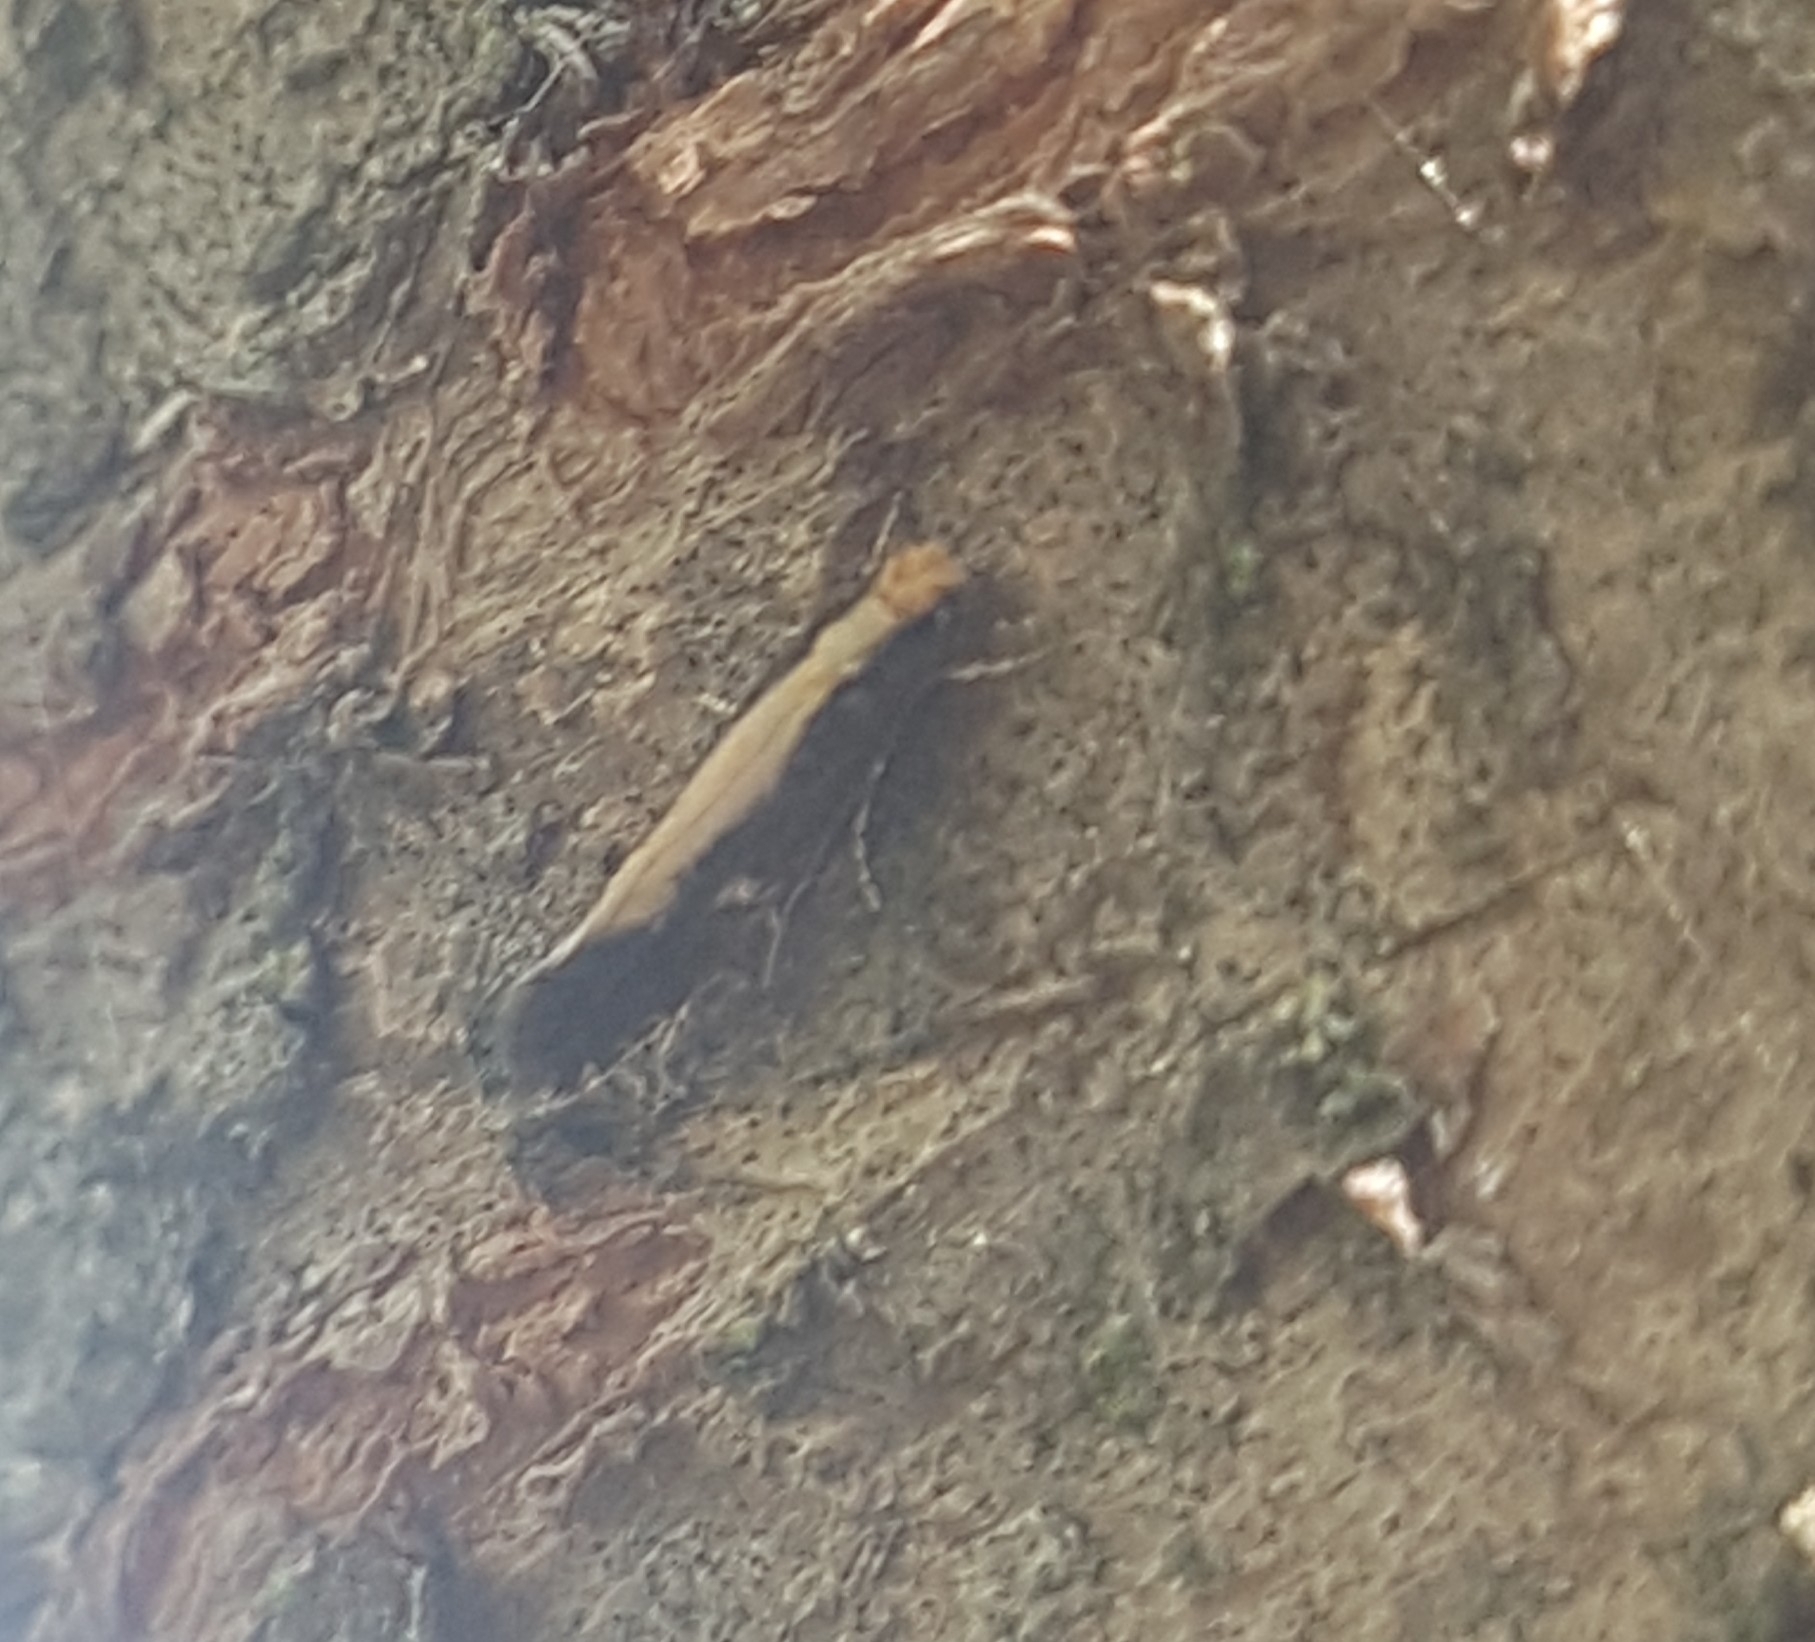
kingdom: Animalia
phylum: Arthropoda
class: Insecta
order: Lepidoptera
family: Tineidae
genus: Monopis
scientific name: Monopis crocicapitella
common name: Moth
